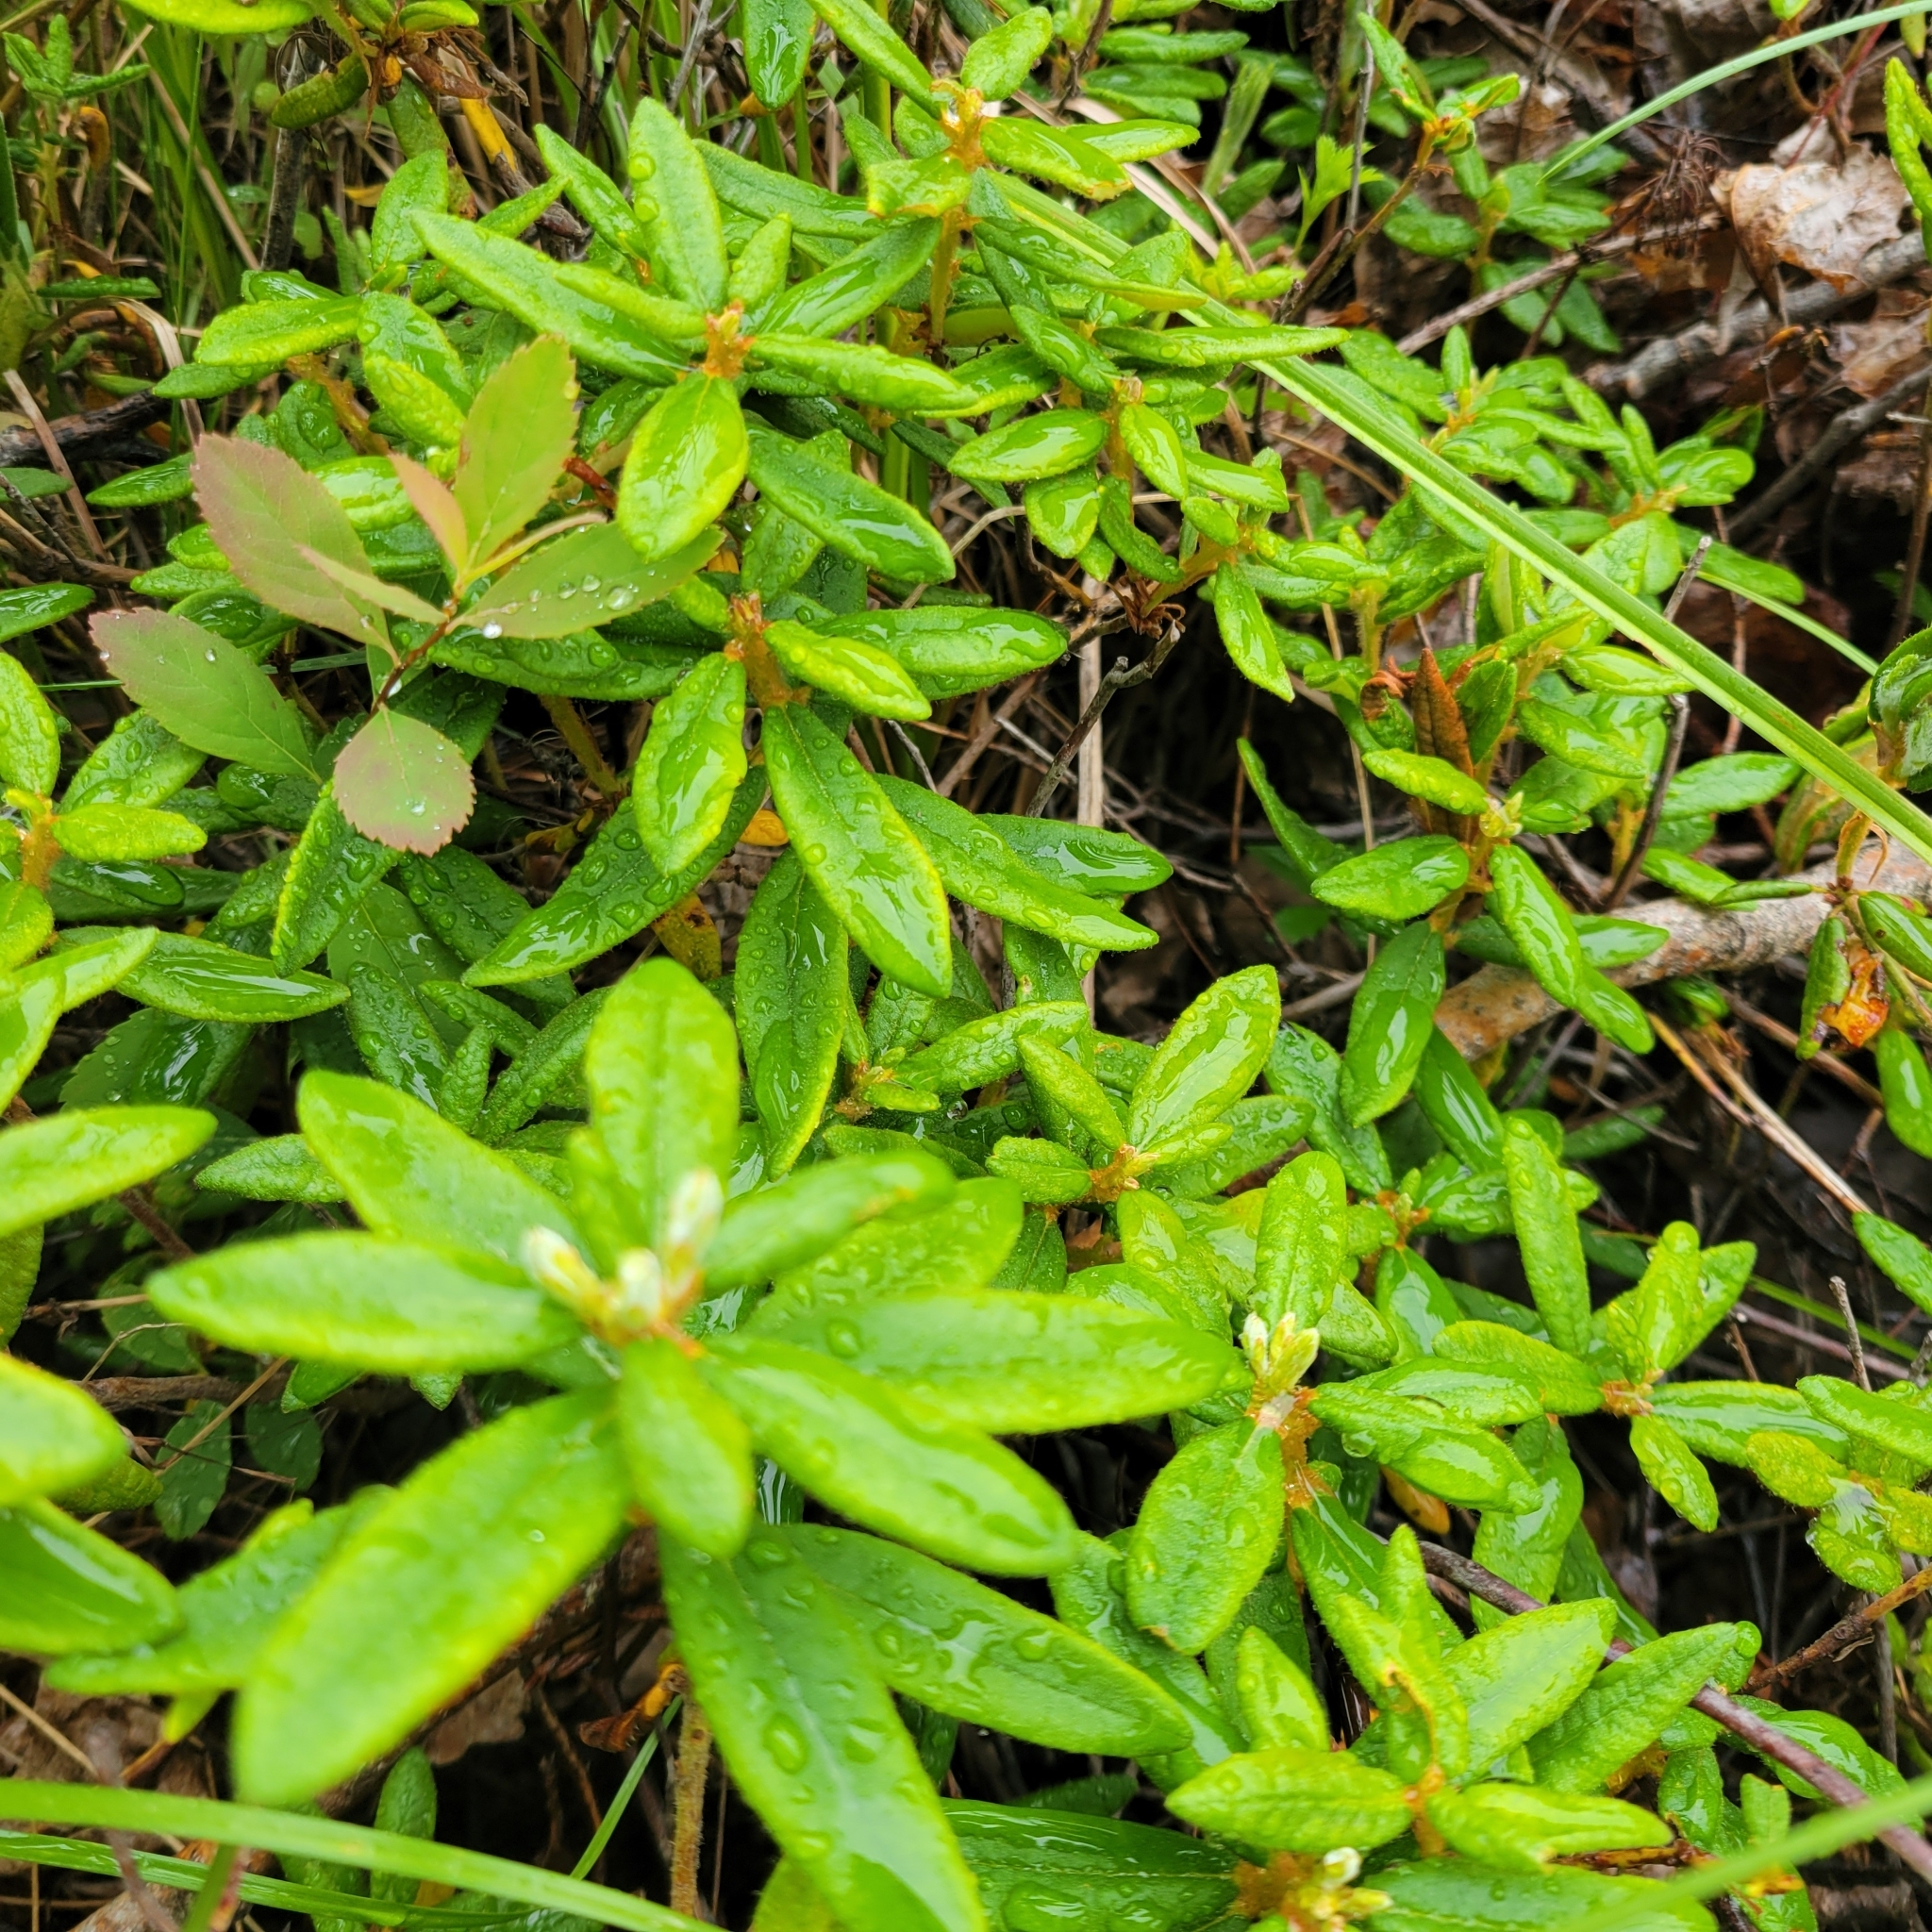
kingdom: Plantae
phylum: Tracheophyta
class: Magnoliopsida
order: Ericales
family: Ericaceae
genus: Rhododendron
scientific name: Rhododendron groenlandicum
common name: Bog labrador tea
